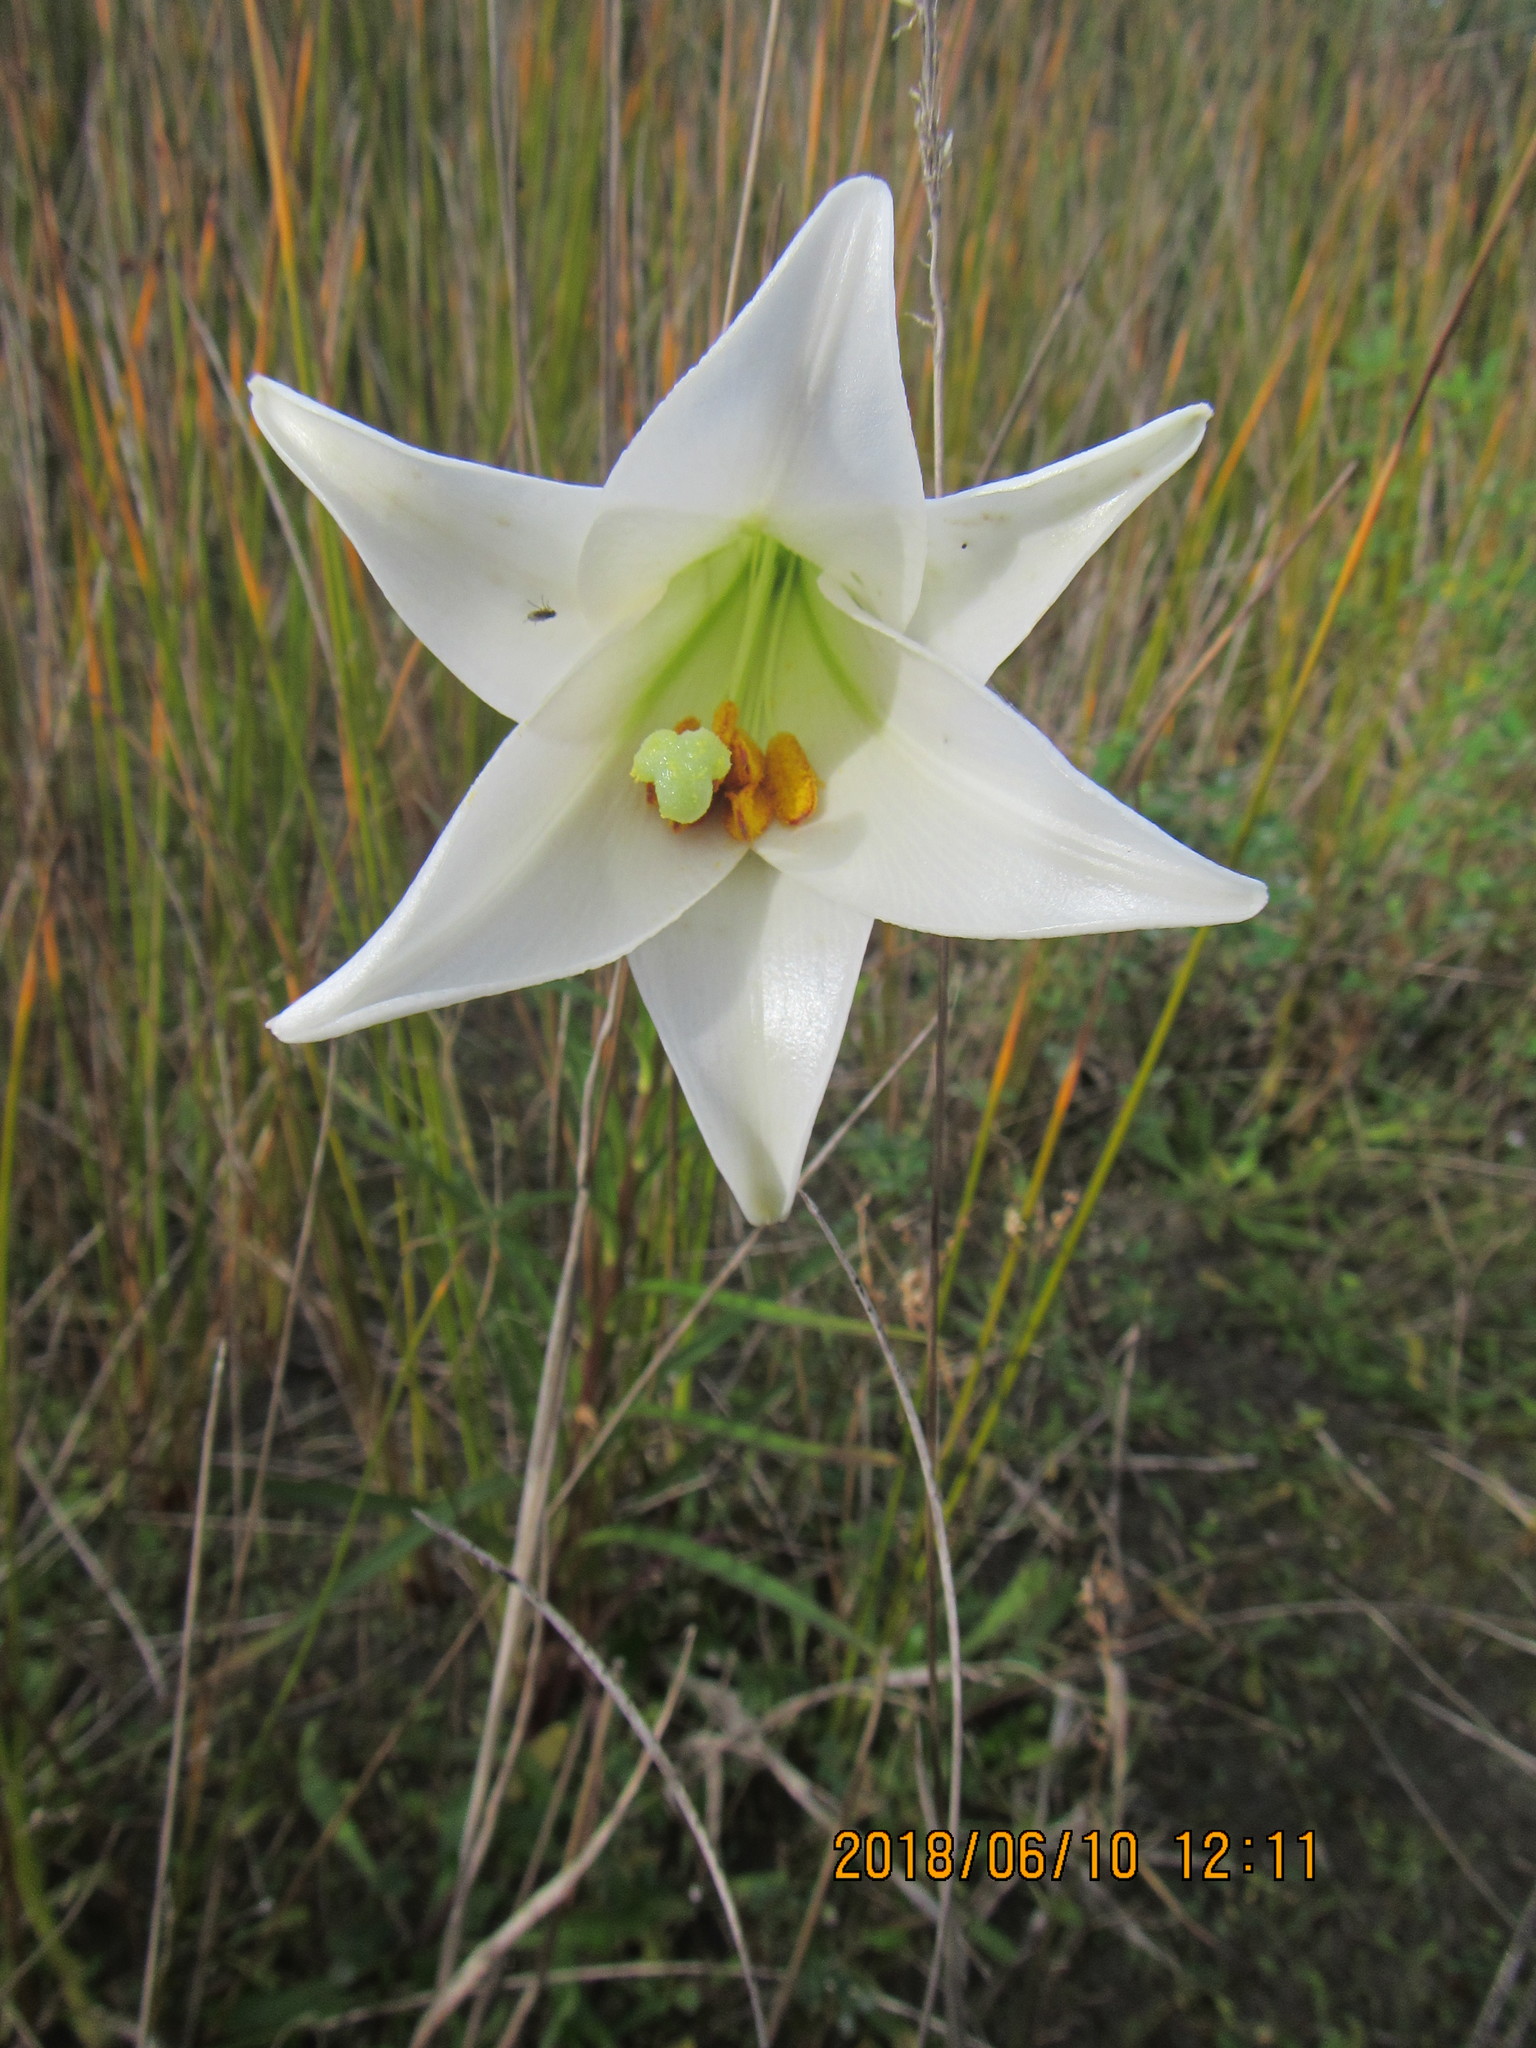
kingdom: Plantae
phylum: Tracheophyta
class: Liliopsida
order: Liliales
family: Liliaceae
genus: Lilium
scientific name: Lilium formosanum
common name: Formosa lily
